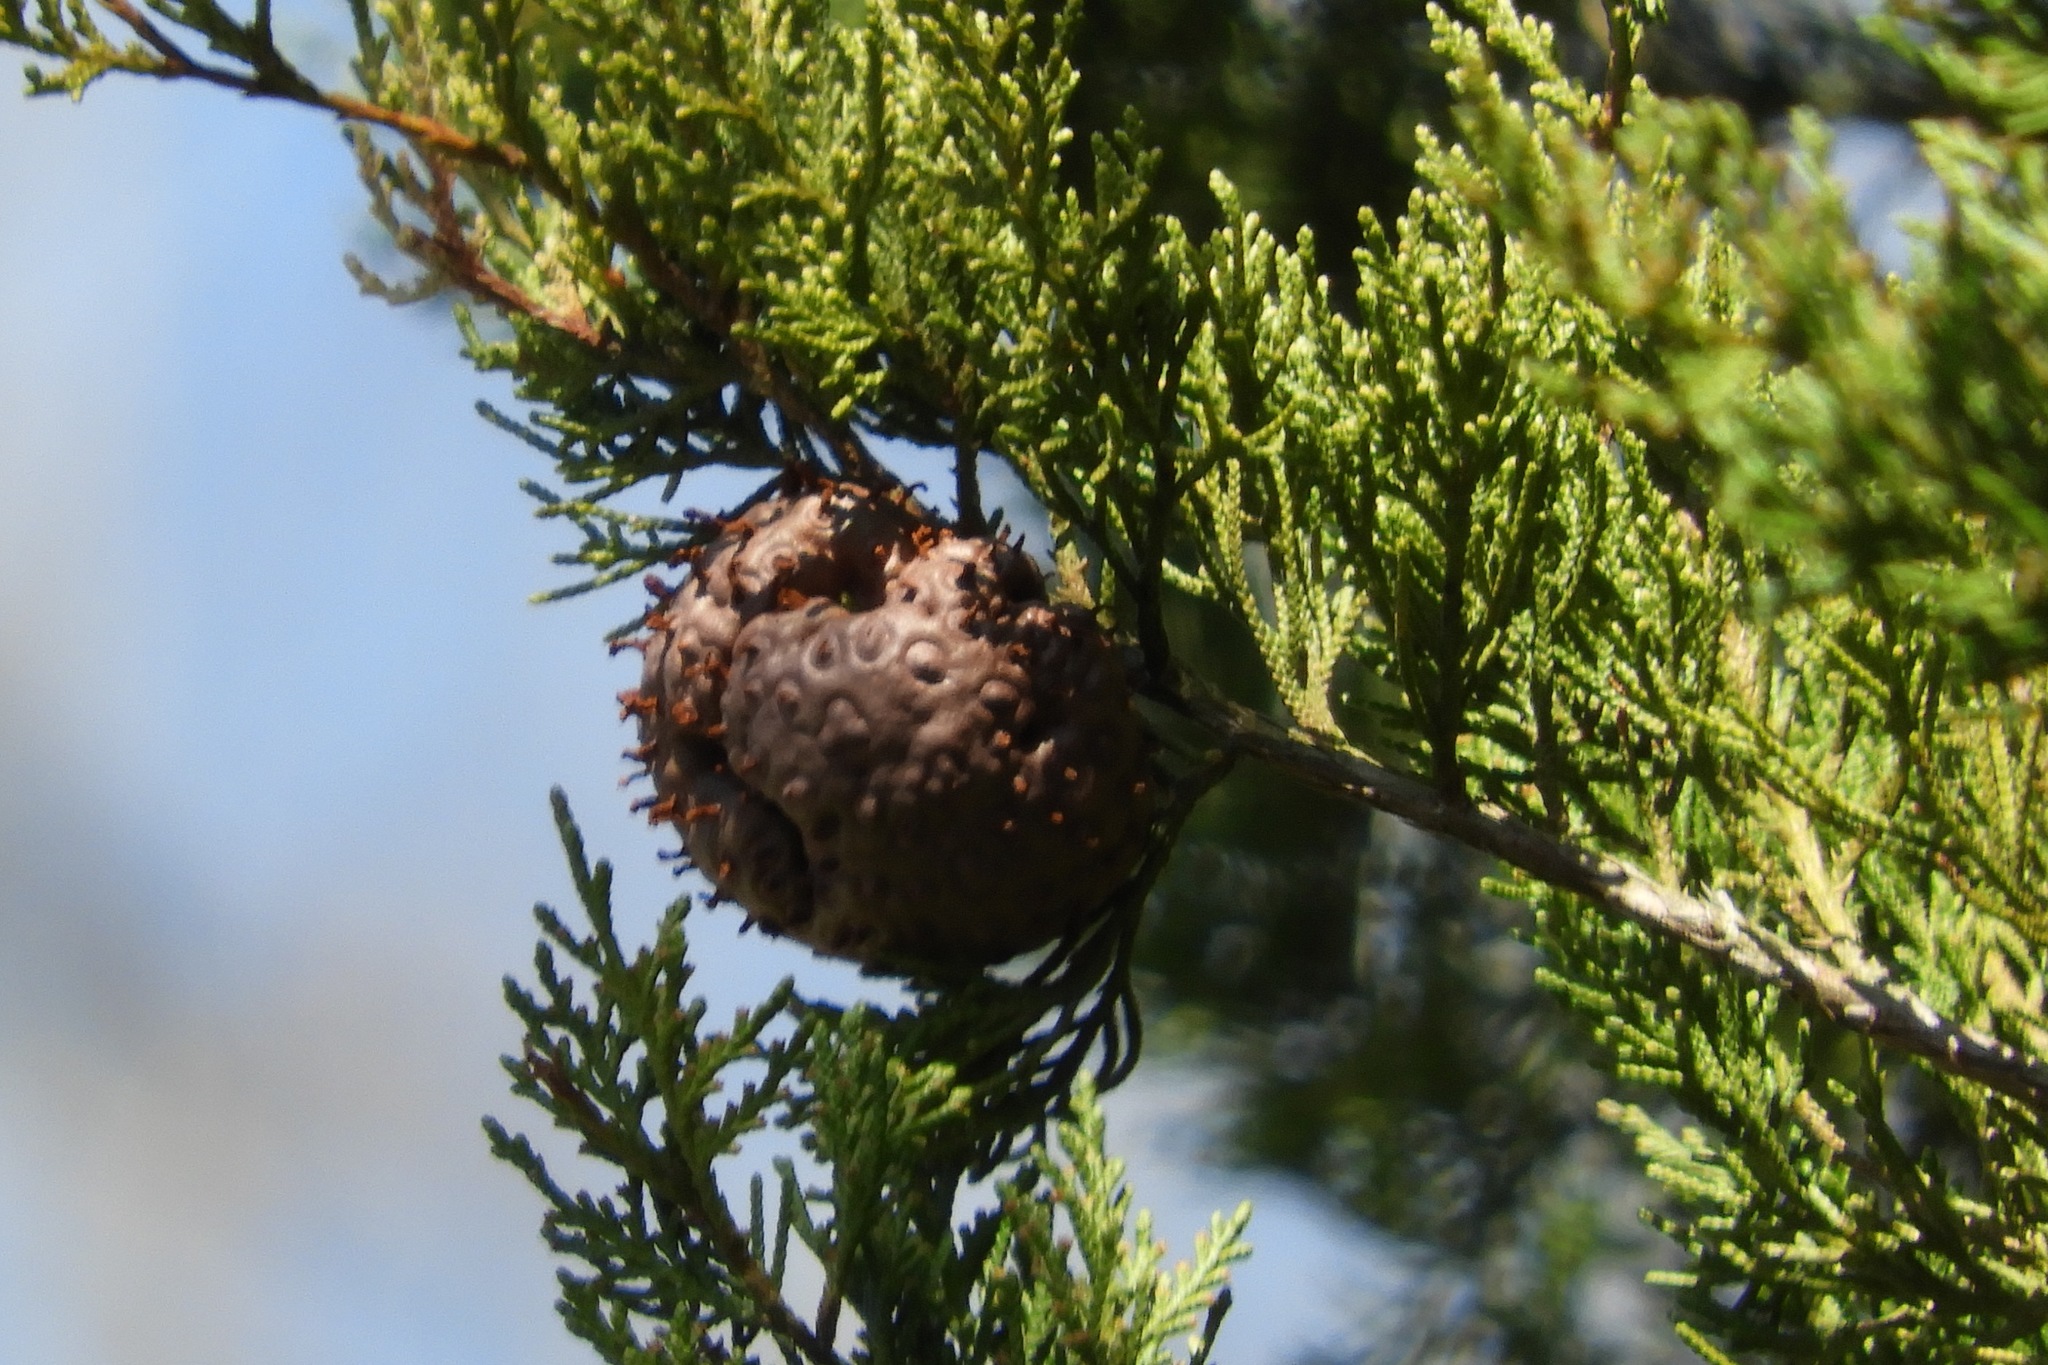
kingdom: Fungi
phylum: Basidiomycota
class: Pucciniomycetes
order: Pucciniales
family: Gymnosporangiaceae
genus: Gymnosporangium
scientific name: Gymnosporangium juniperi-virginianae
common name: Juniper-apple rust
